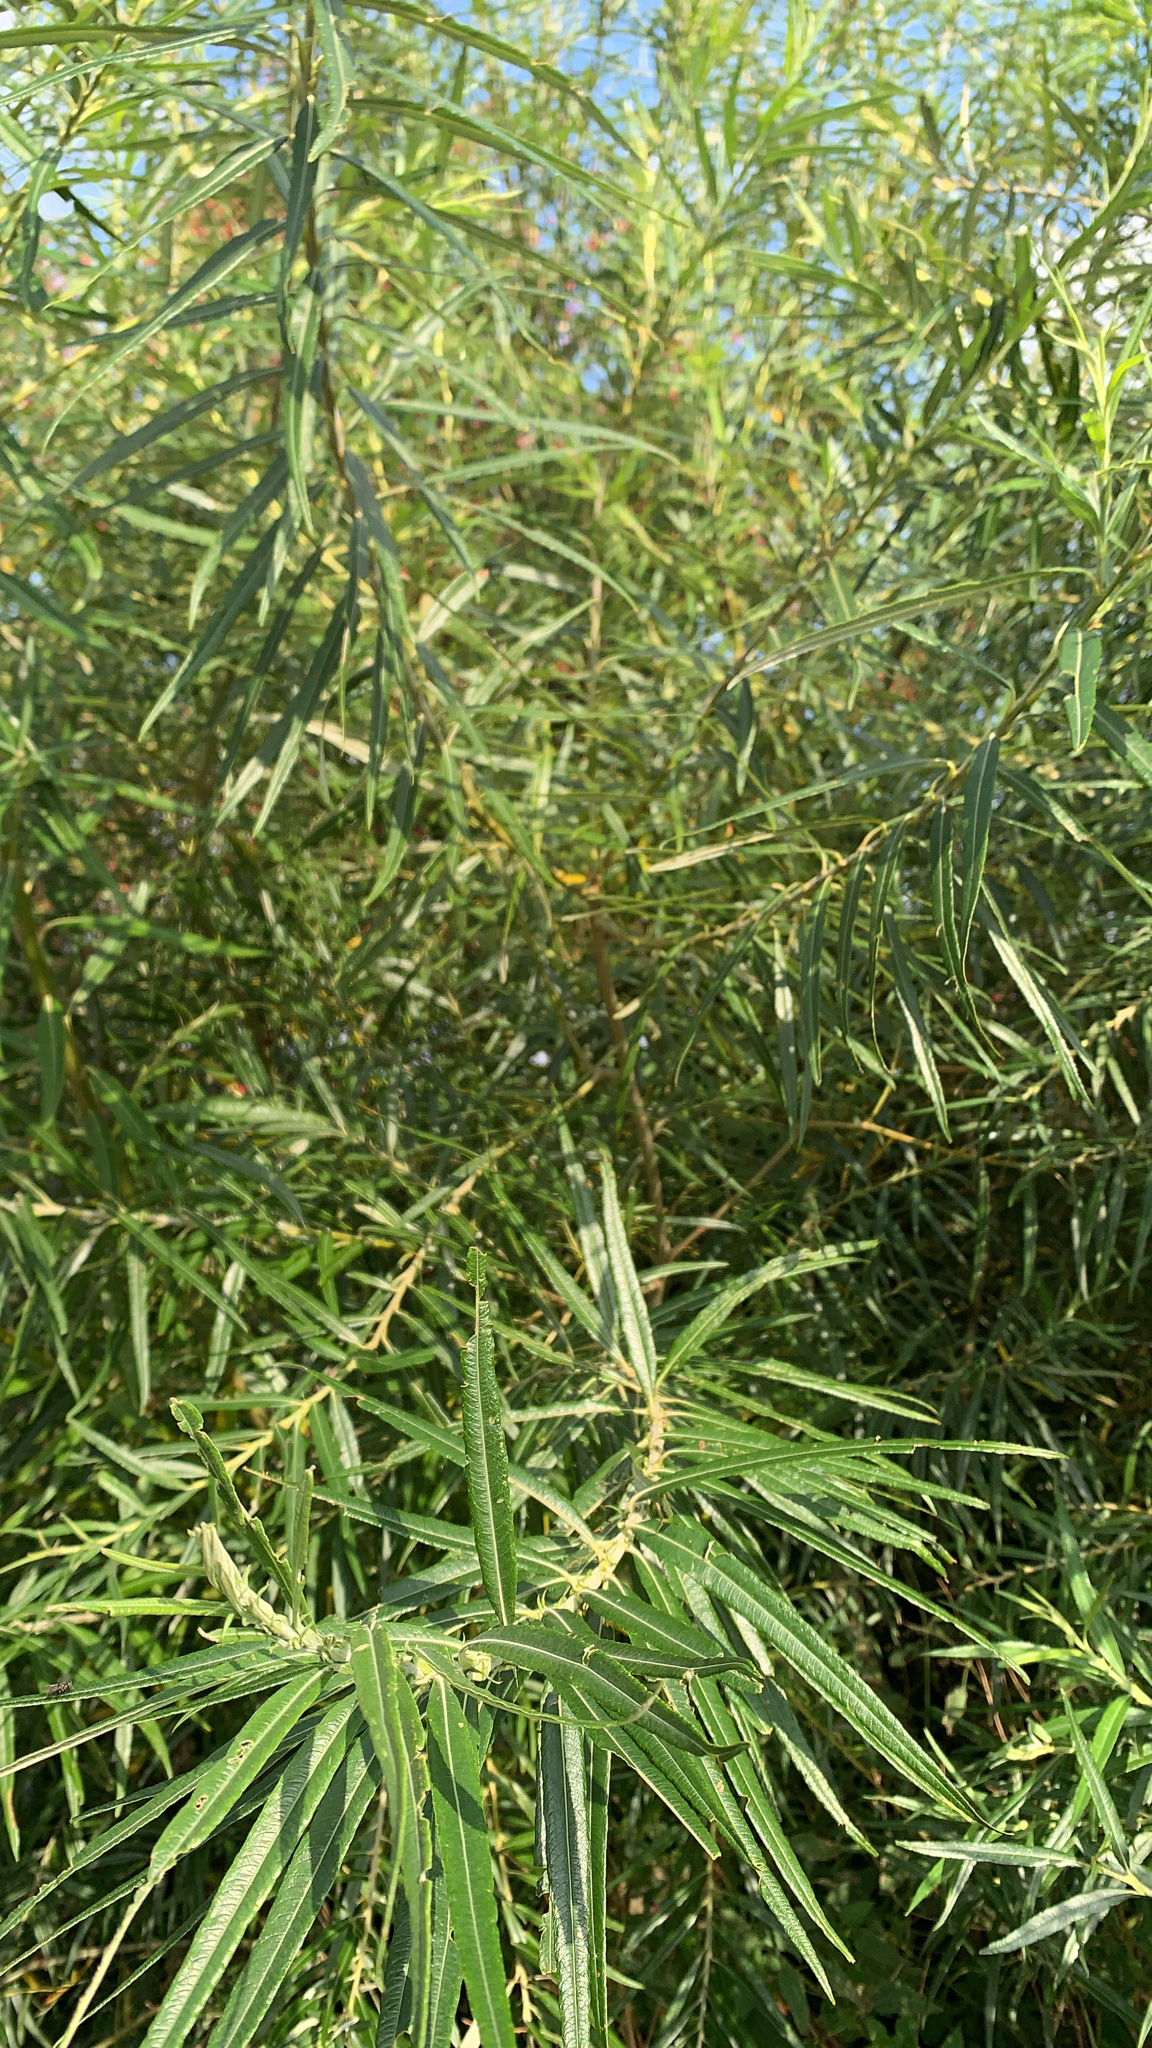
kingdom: Plantae
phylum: Tracheophyta
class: Magnoliopsida
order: Malpighiales
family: Salicaceae
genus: Salix
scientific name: Salix viminalis
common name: Osier
